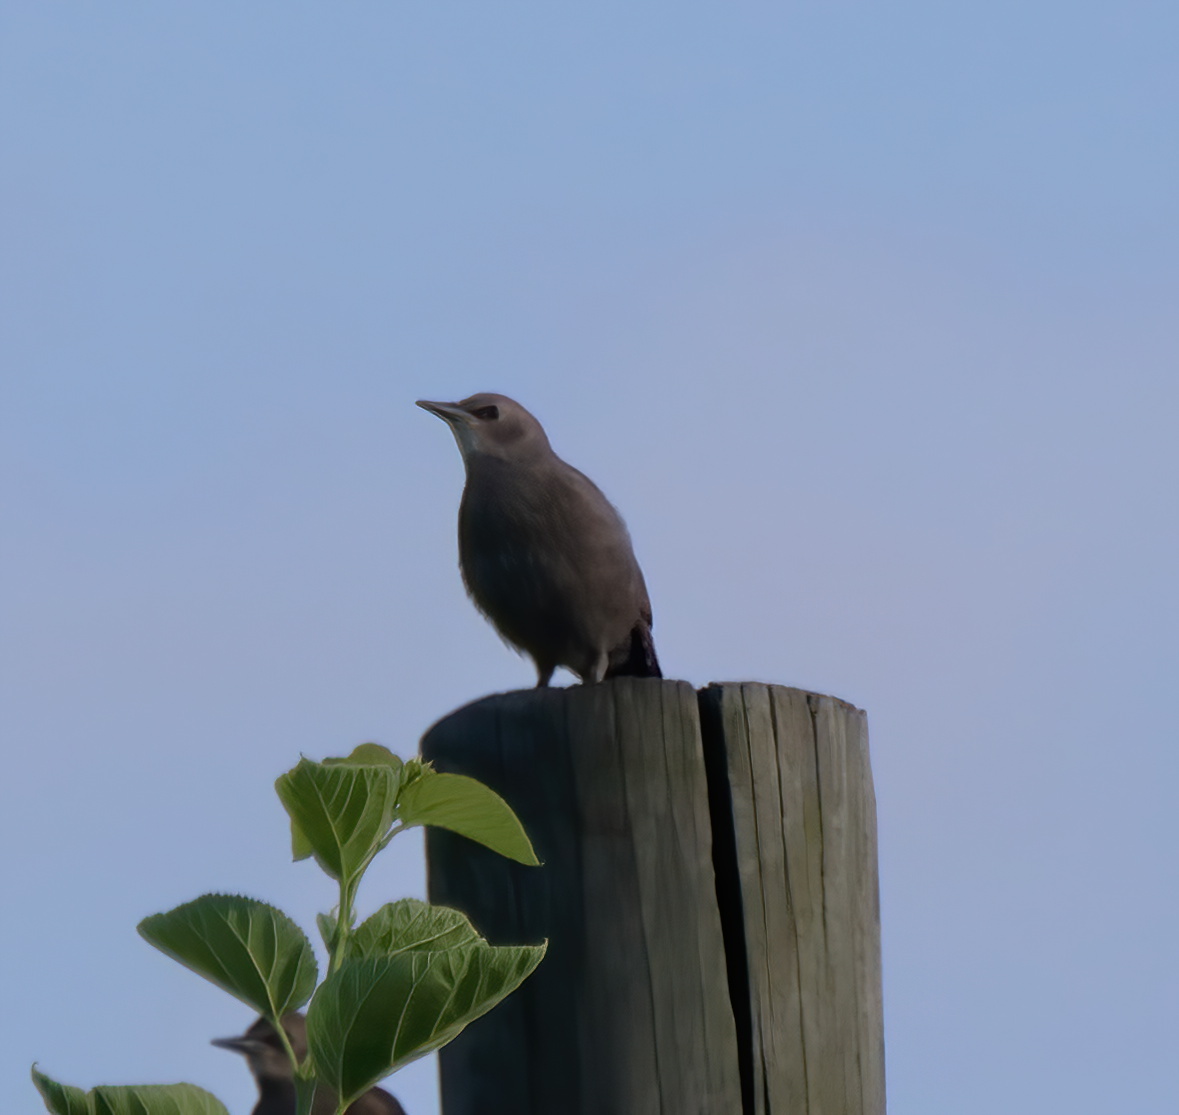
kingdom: Animalia
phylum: Chordata
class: Aves
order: Columbiformes
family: Columbidae
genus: Columba
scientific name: Columba livia
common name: Rock pigeon
